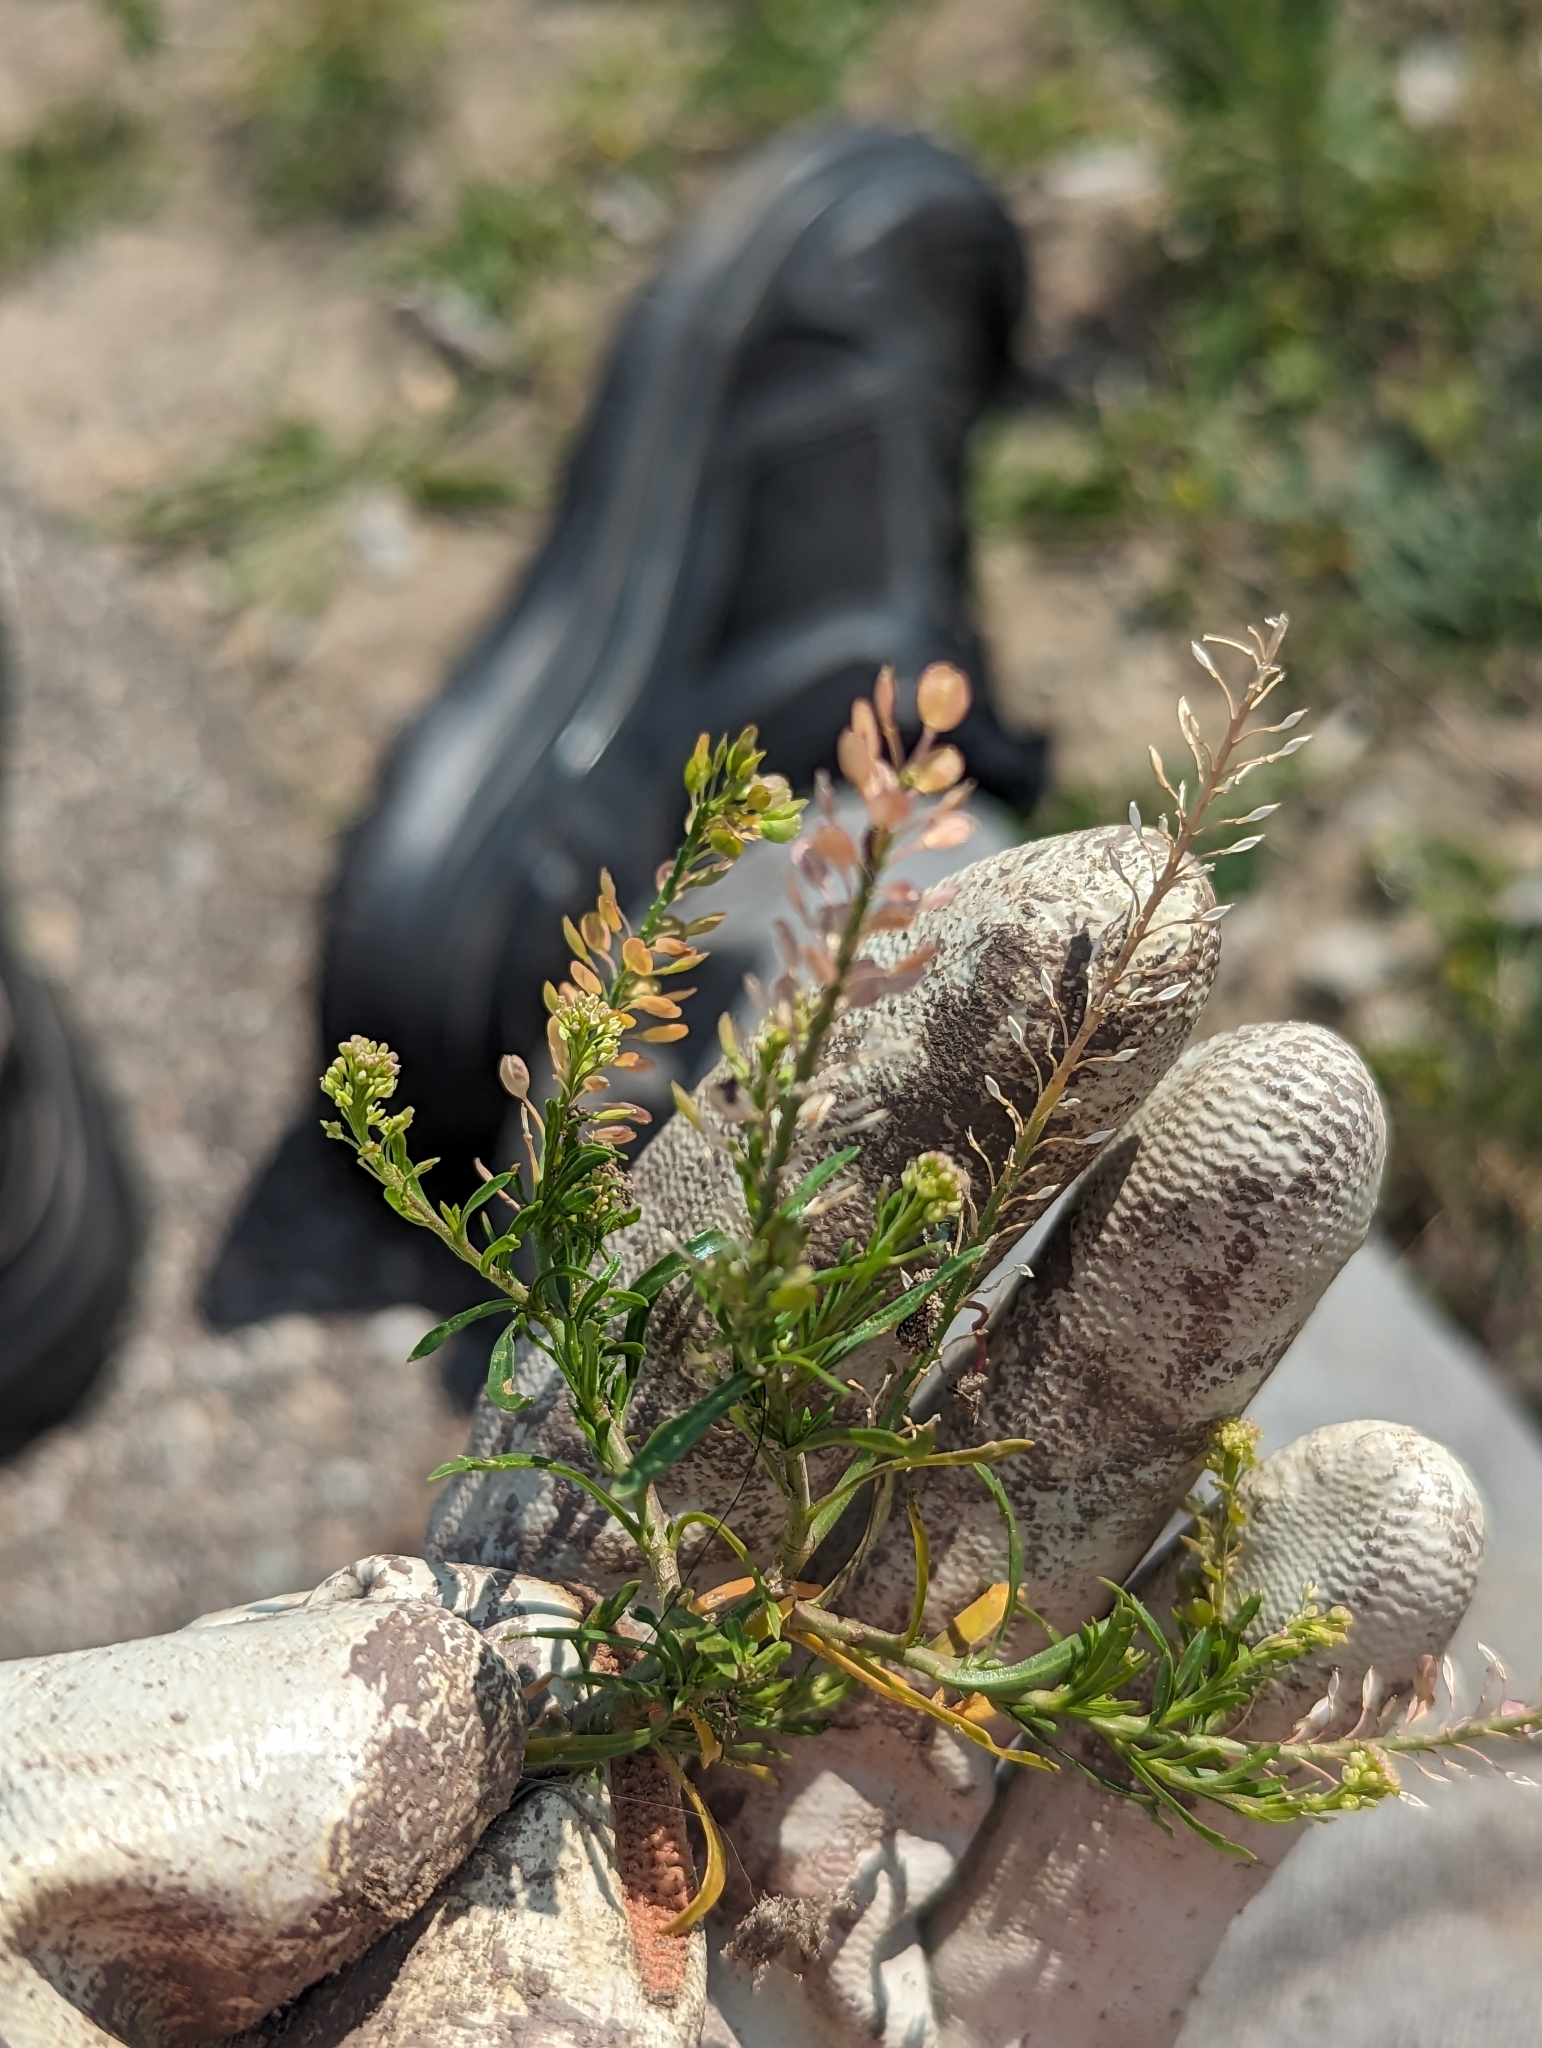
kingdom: Plantae
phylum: Tracheophyta
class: Magnoliopsida
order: Brassicales
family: Brassicaceae
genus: Lepidium
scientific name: Lepidium densiflorum
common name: Miner's pepperwort
